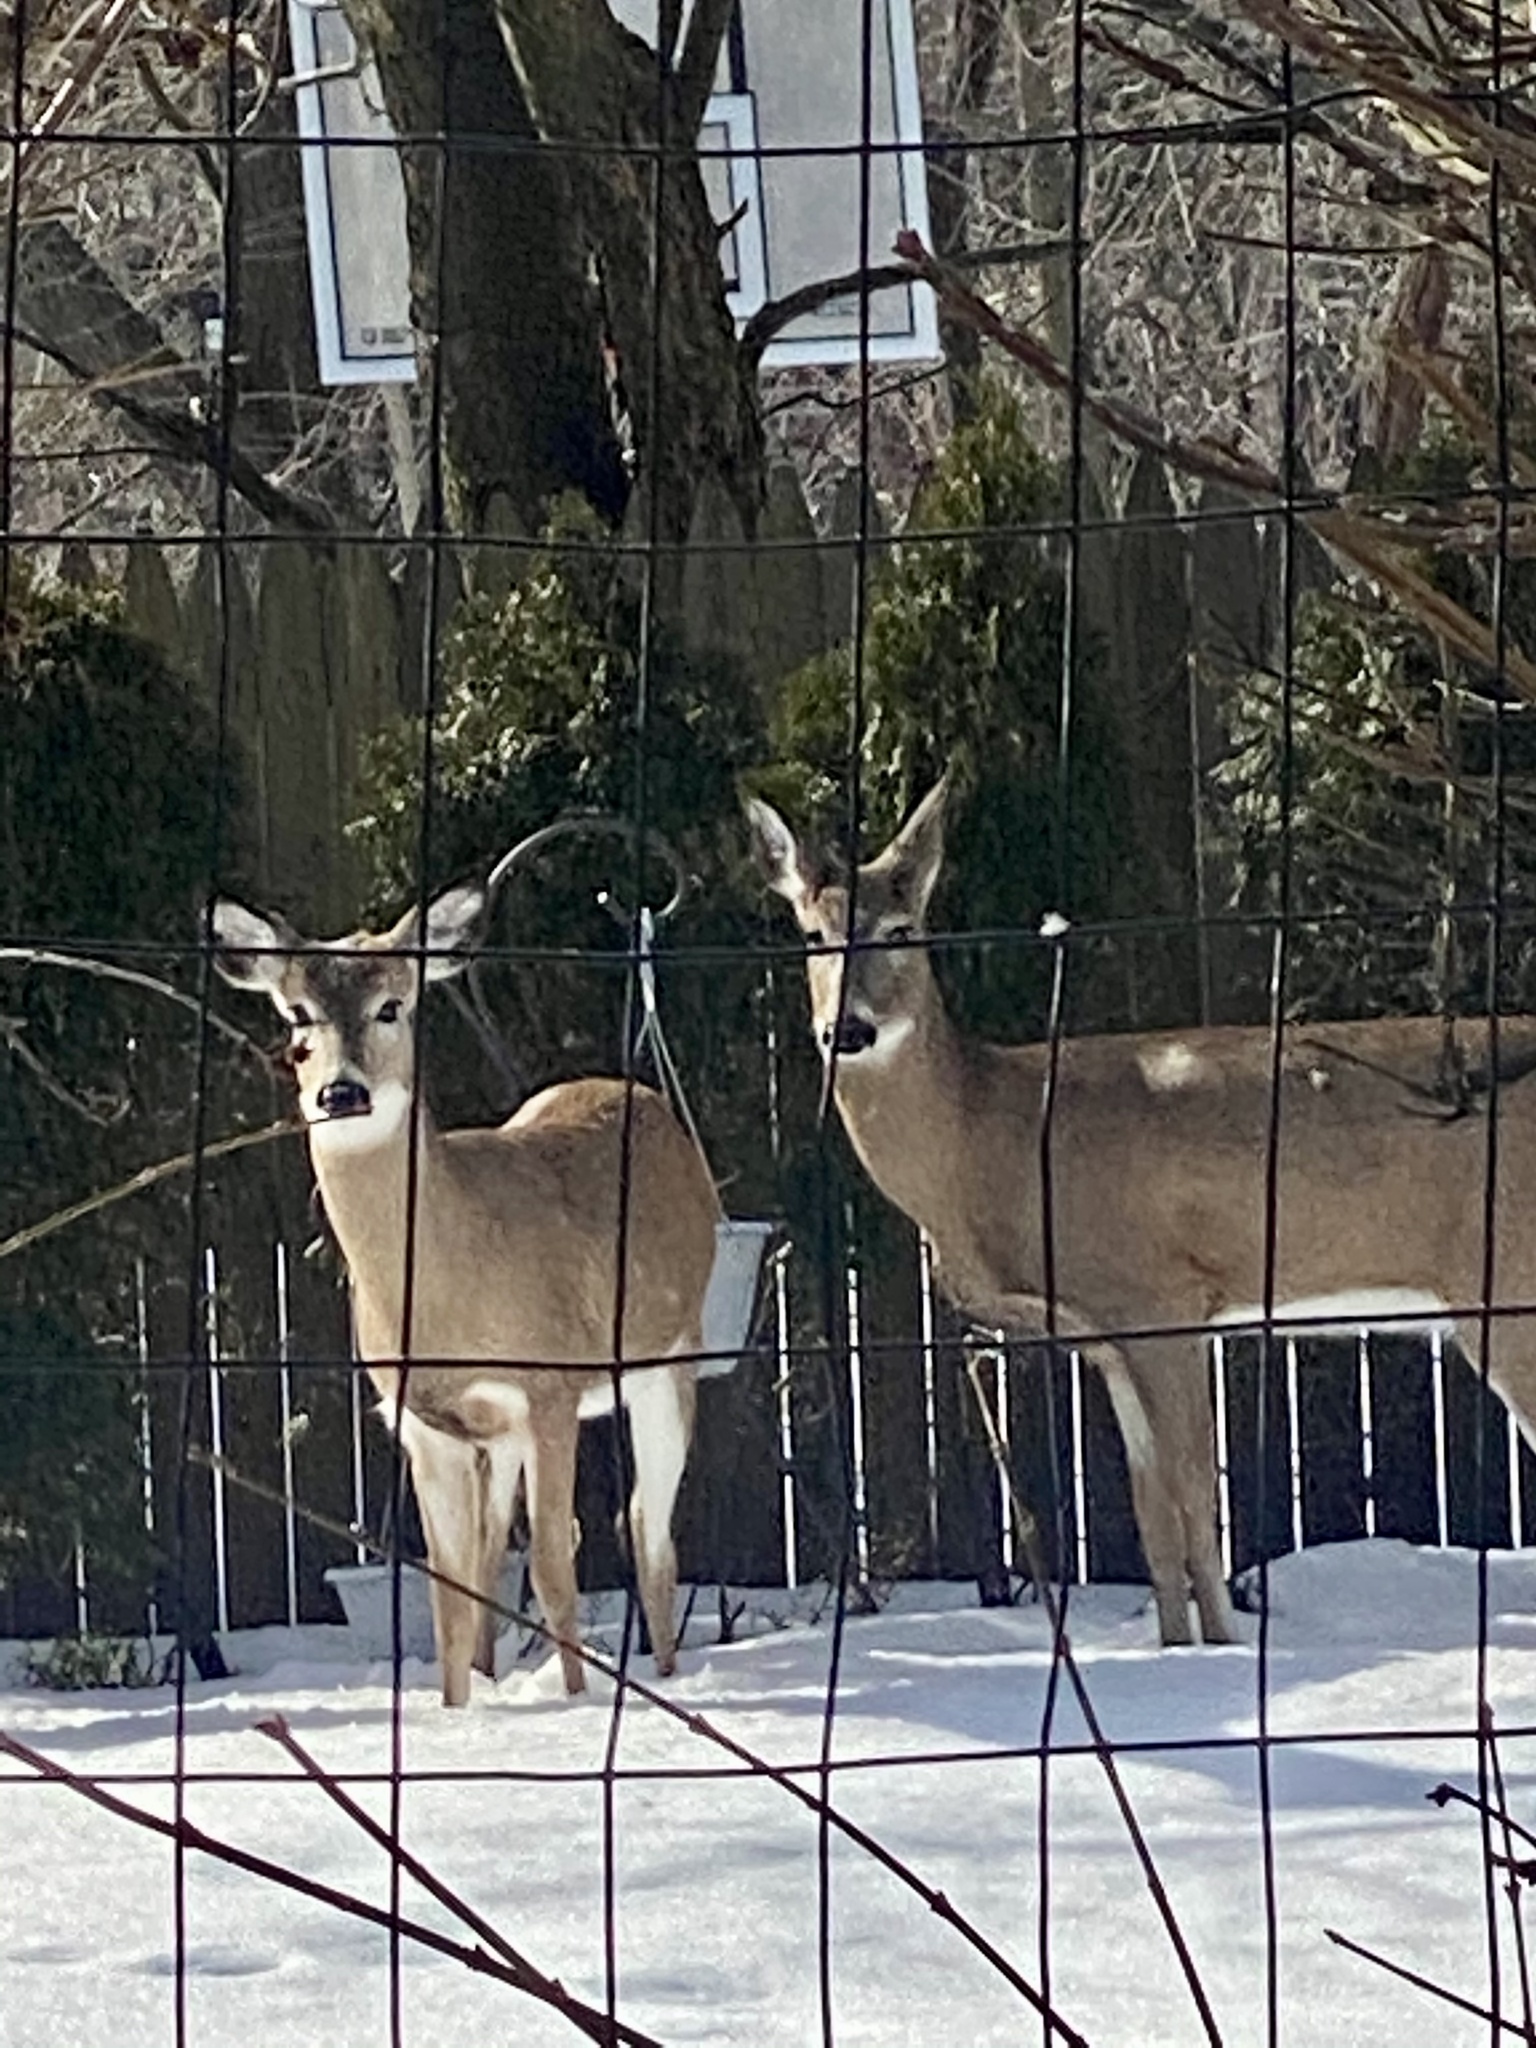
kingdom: Animalia
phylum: Chordata
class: Mammalia
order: Artiodactyla
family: Cervidae
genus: Odocoileus
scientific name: Odocoileus virginianus
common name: White-tailed deer
